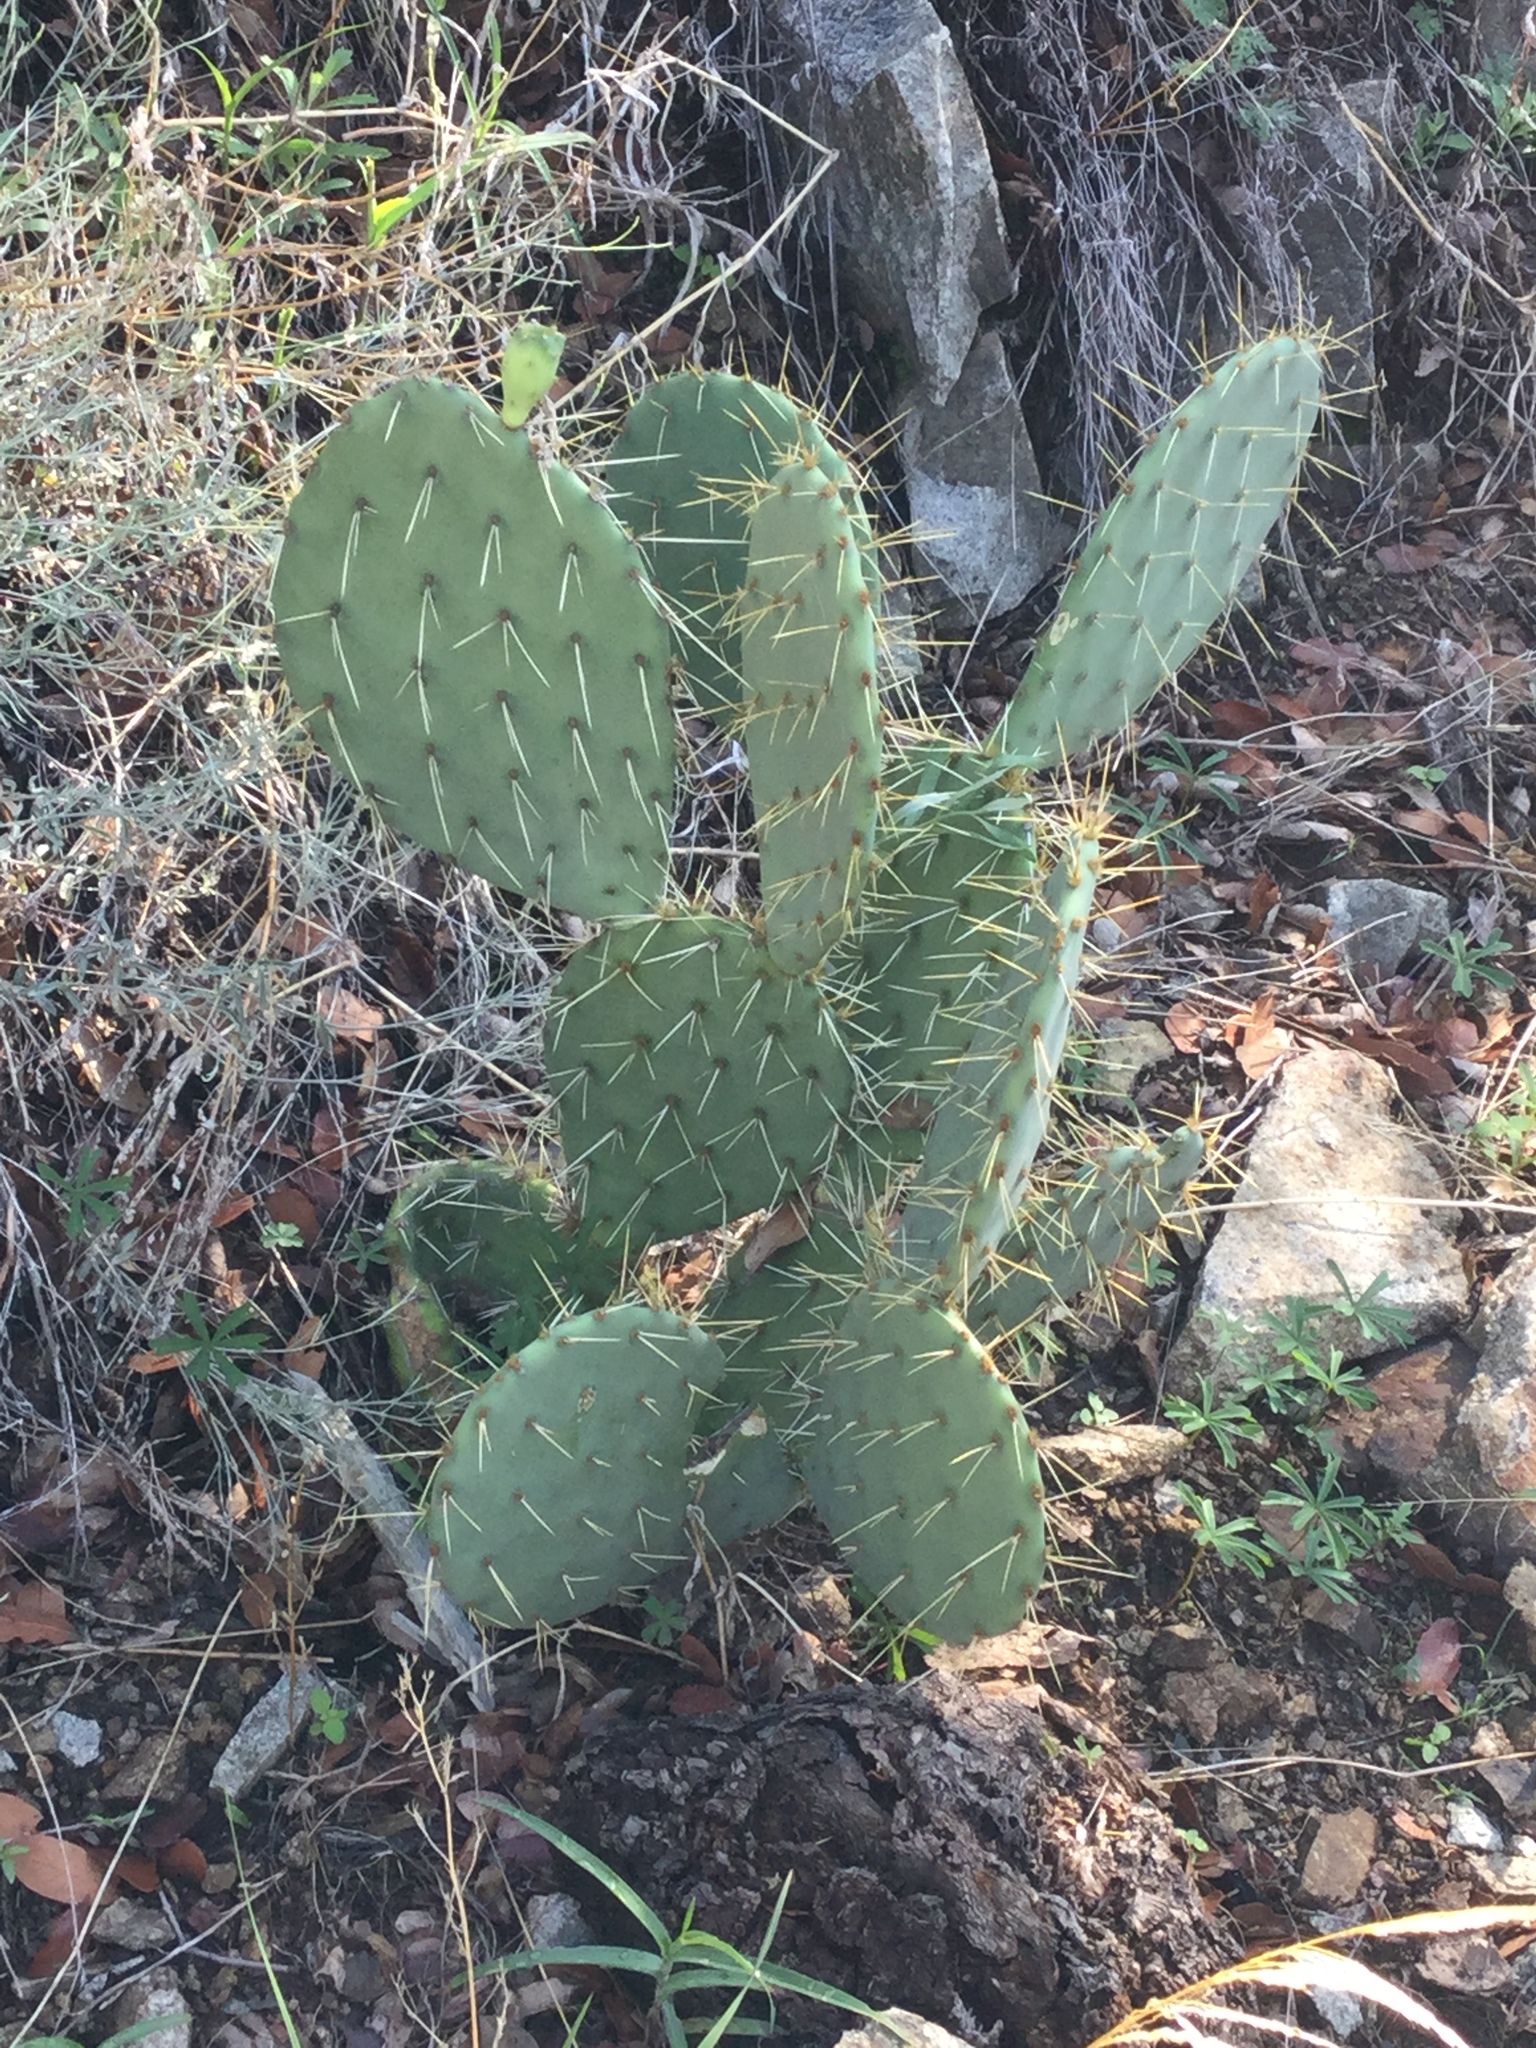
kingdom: Plantae
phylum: Tracheophyta
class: Magnoliopsida
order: Caryophyllales
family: Cactaceae
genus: Opuntia
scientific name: Opuntia engelmannii
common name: Cactus-apple
